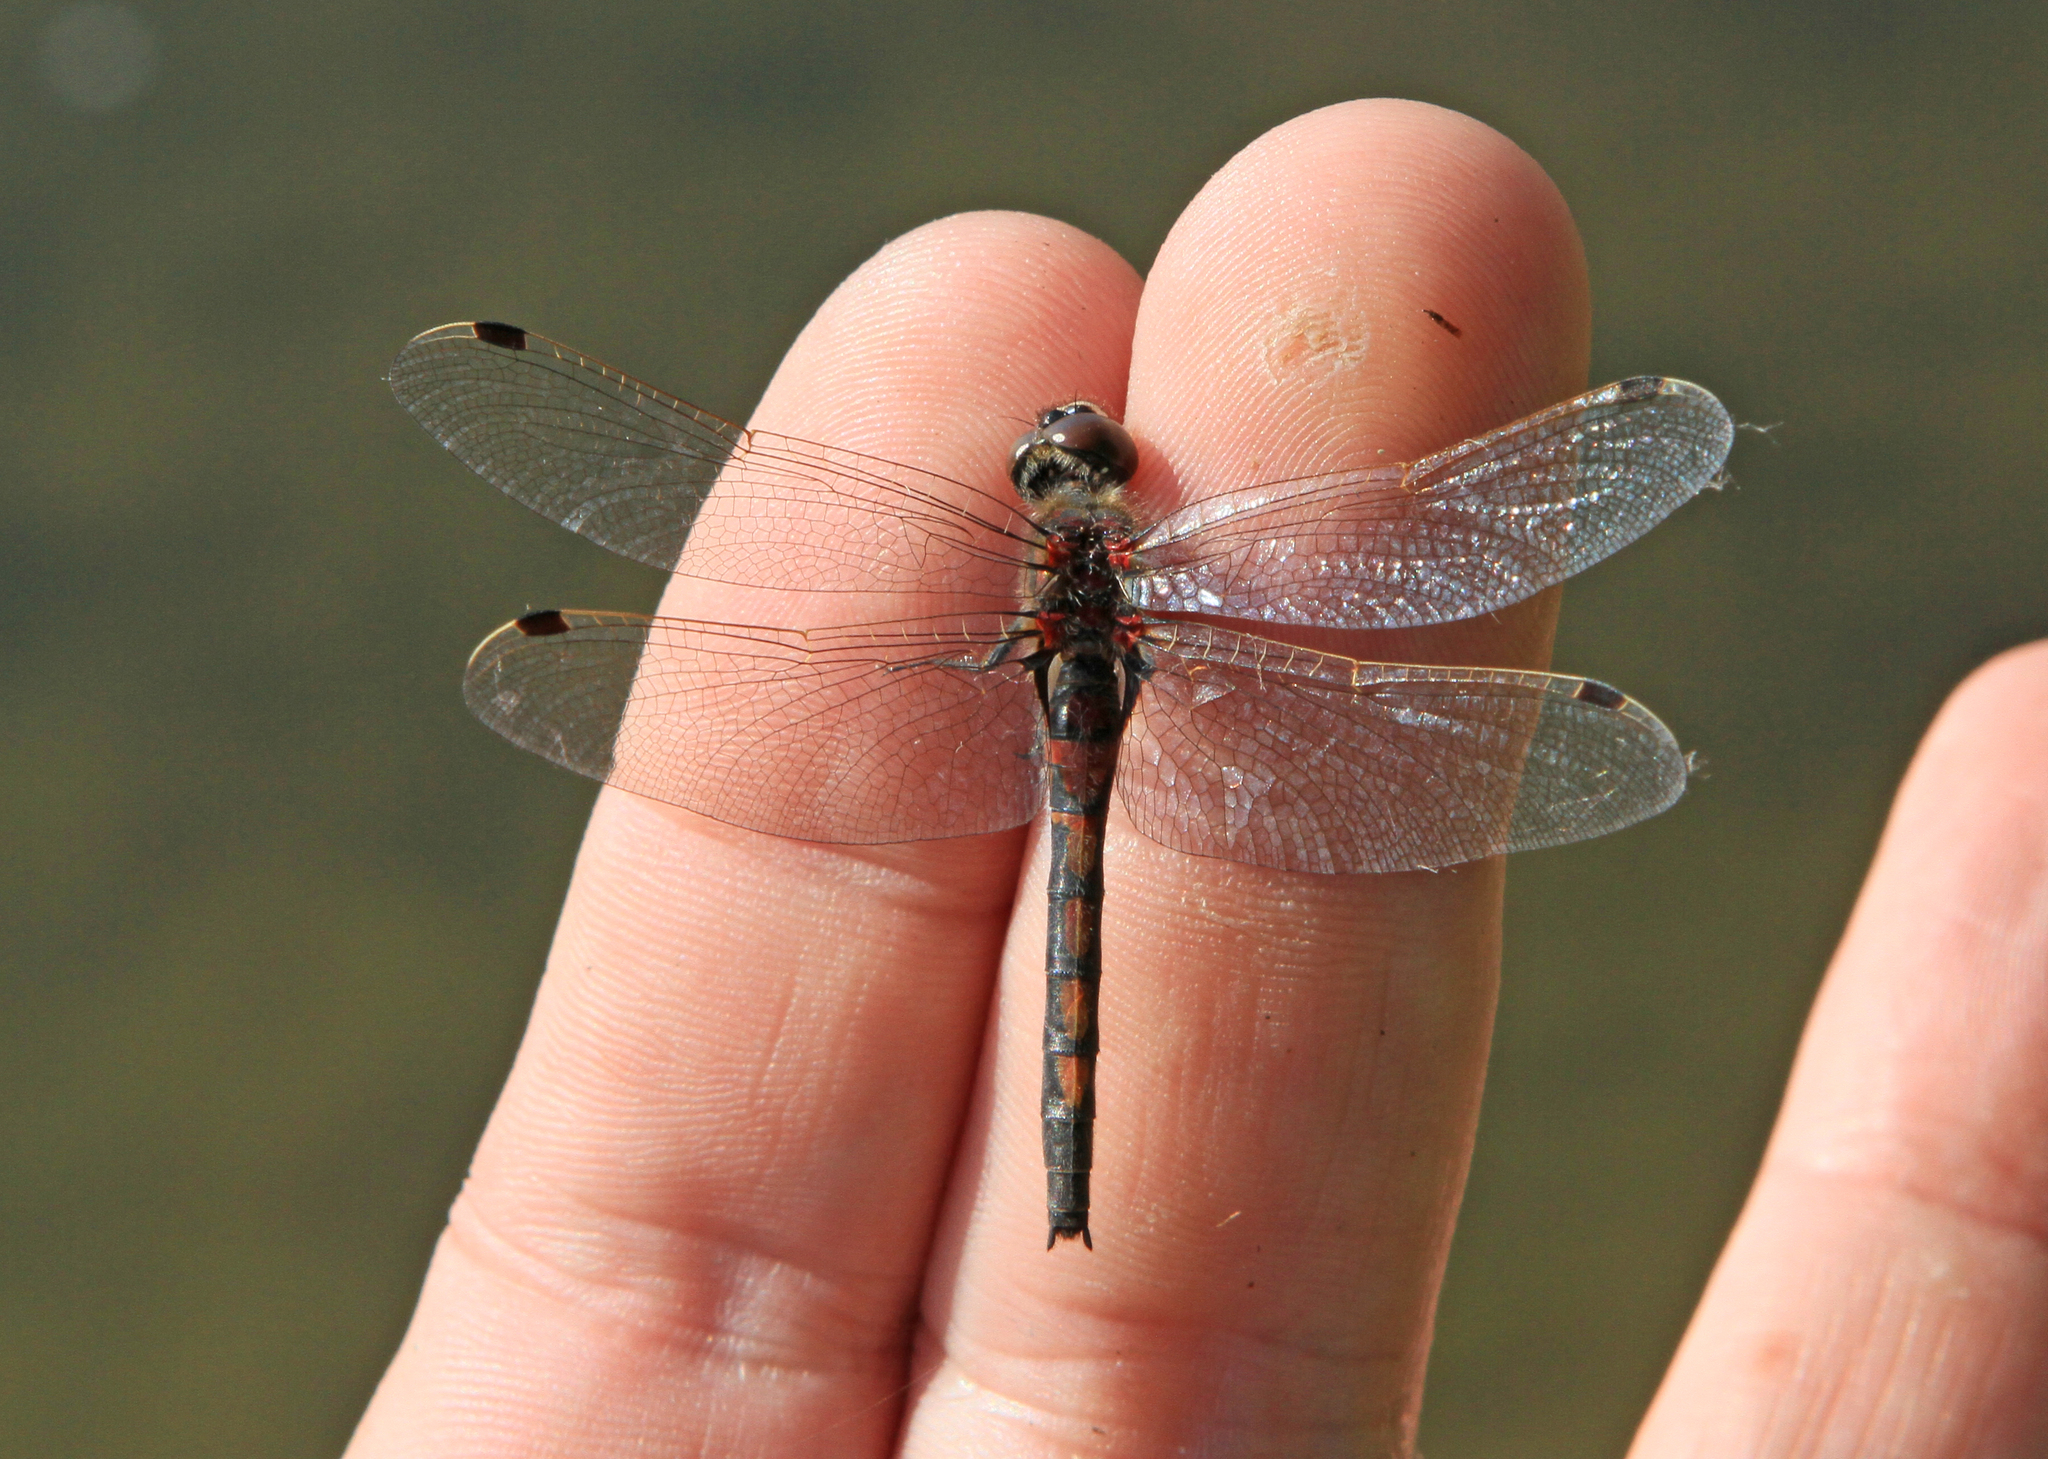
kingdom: Animalia
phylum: Arthropoda
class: Insecta
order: Odonata
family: Libellulidae
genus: Leucorrhinia
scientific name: Leucorrhinia rubicunda
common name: Ruby whiteface
